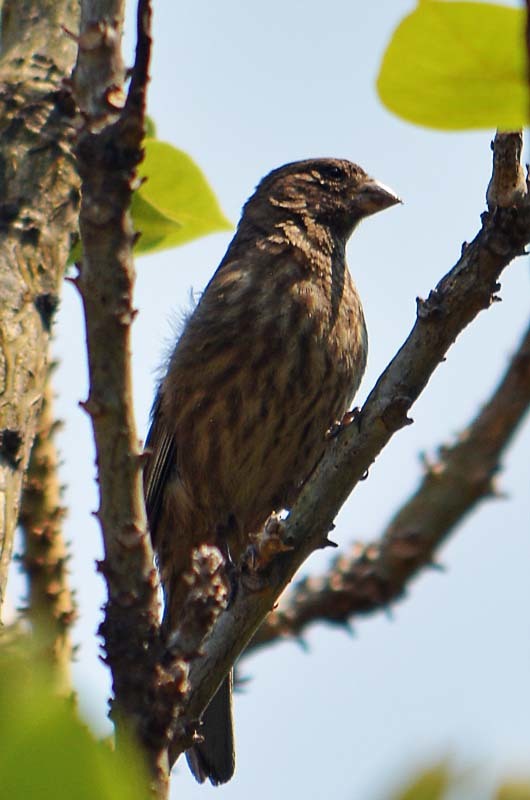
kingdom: Animalia
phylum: Chordata
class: Aves
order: Passeriformes
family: Fringillidae
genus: Haemorhous
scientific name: Haemorhous mexicanus
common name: House finch
